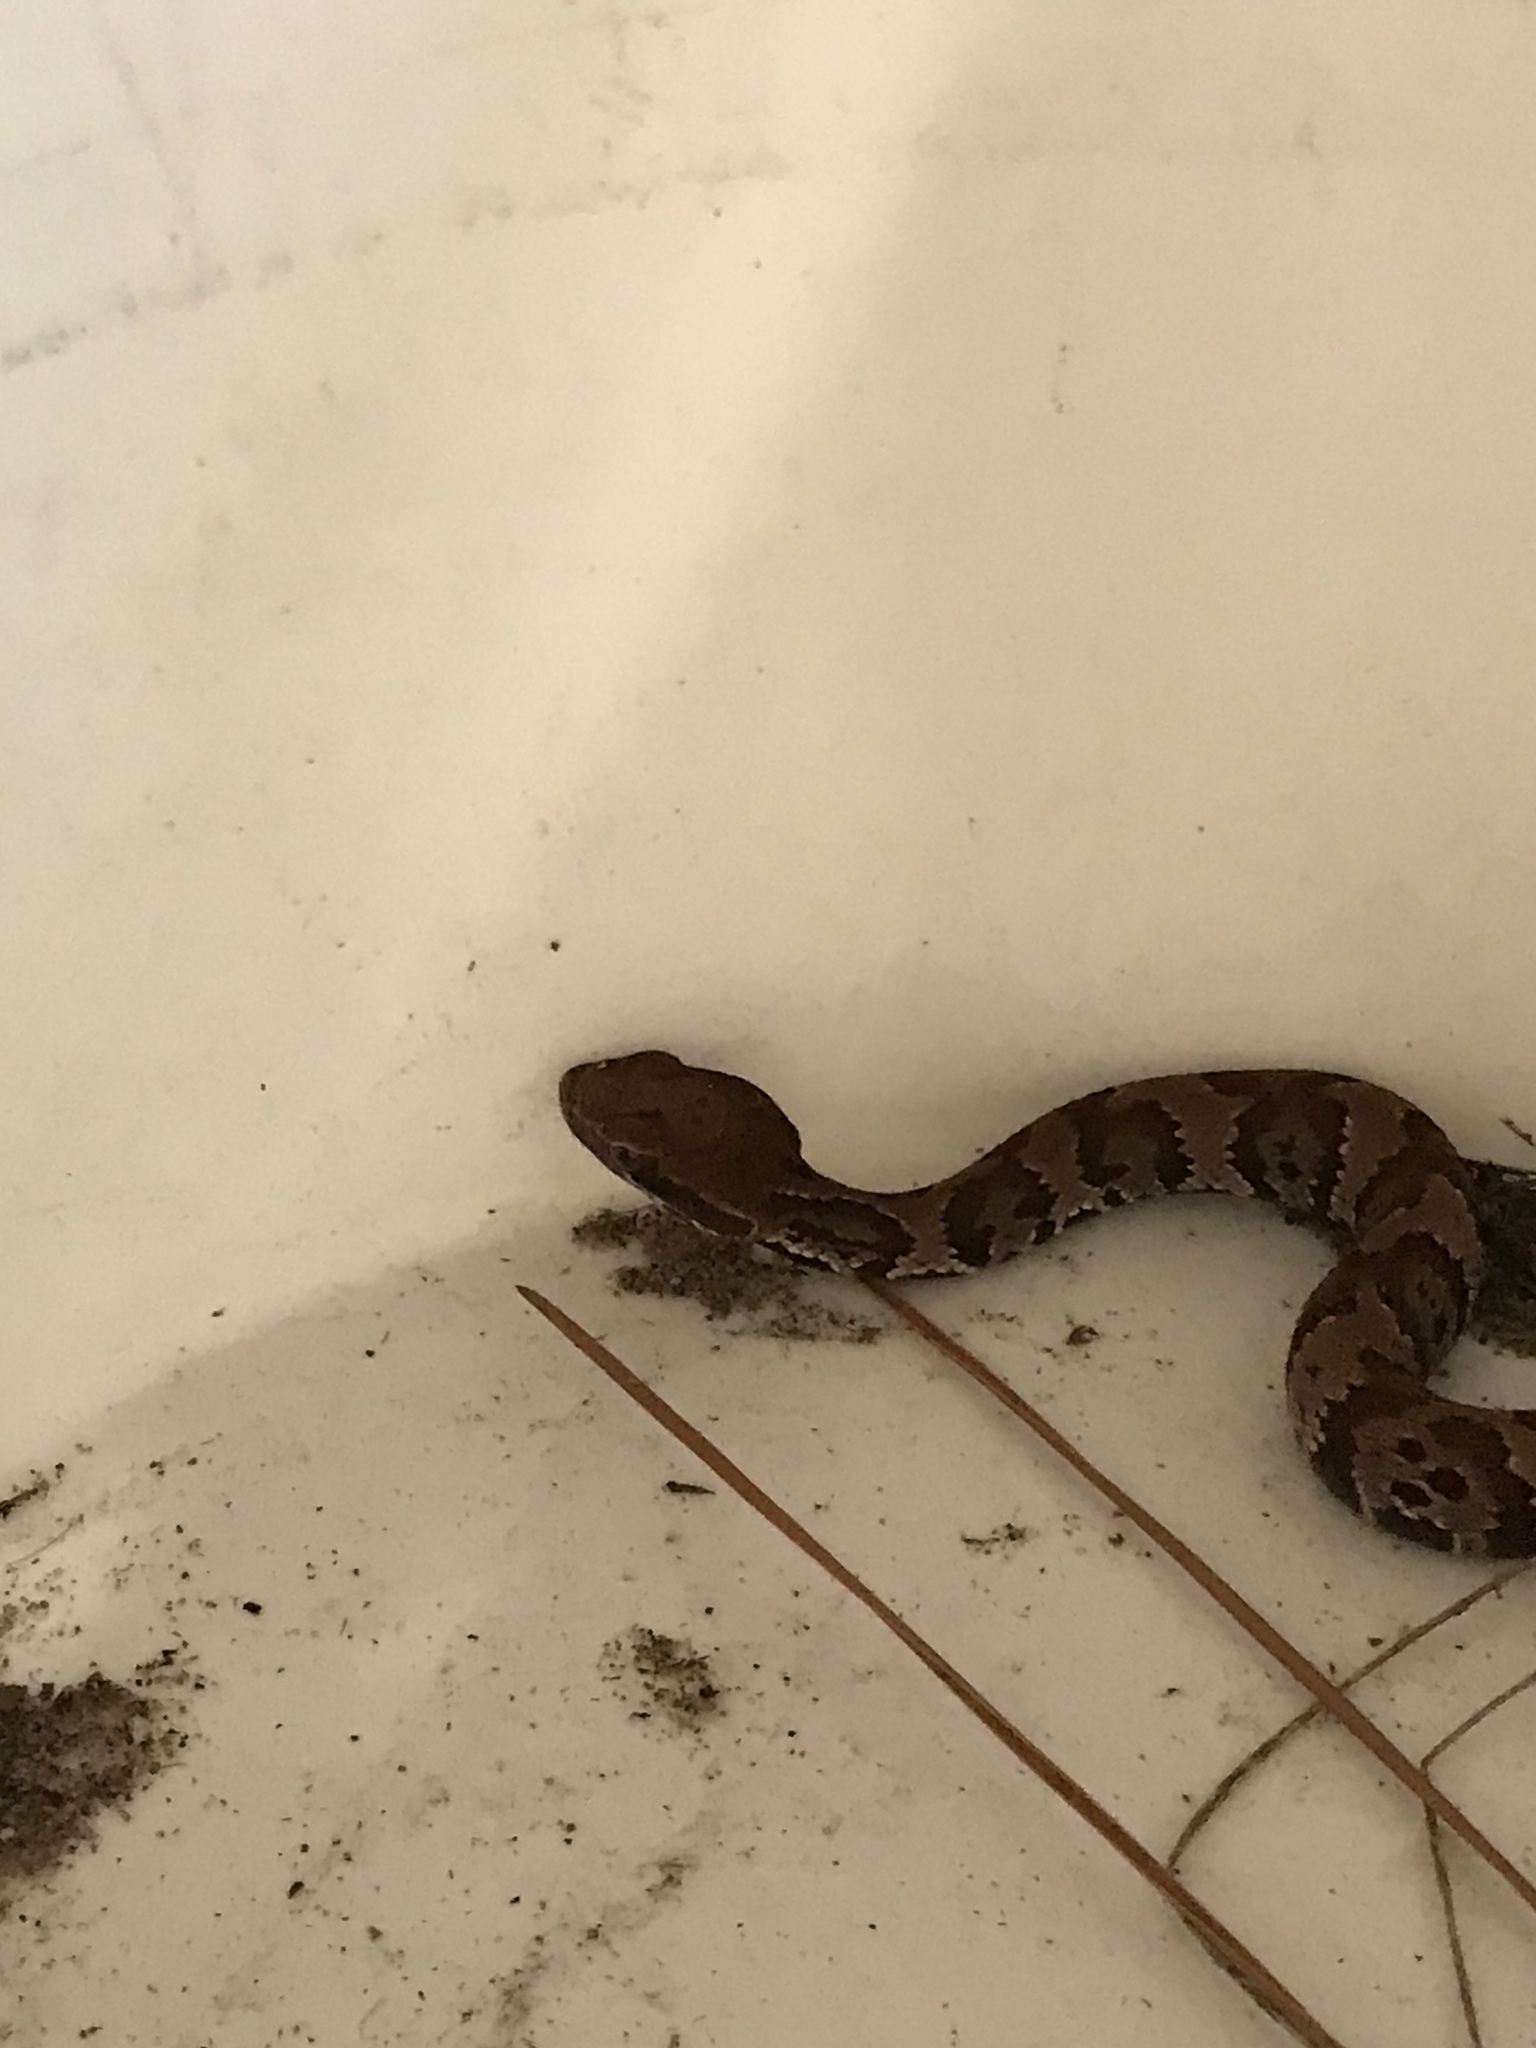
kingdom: Animalia
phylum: Chordata
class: Squamata
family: Viperidae
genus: Agkistrodon
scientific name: Agkistrodon piscivorus
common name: Cottonmouth
